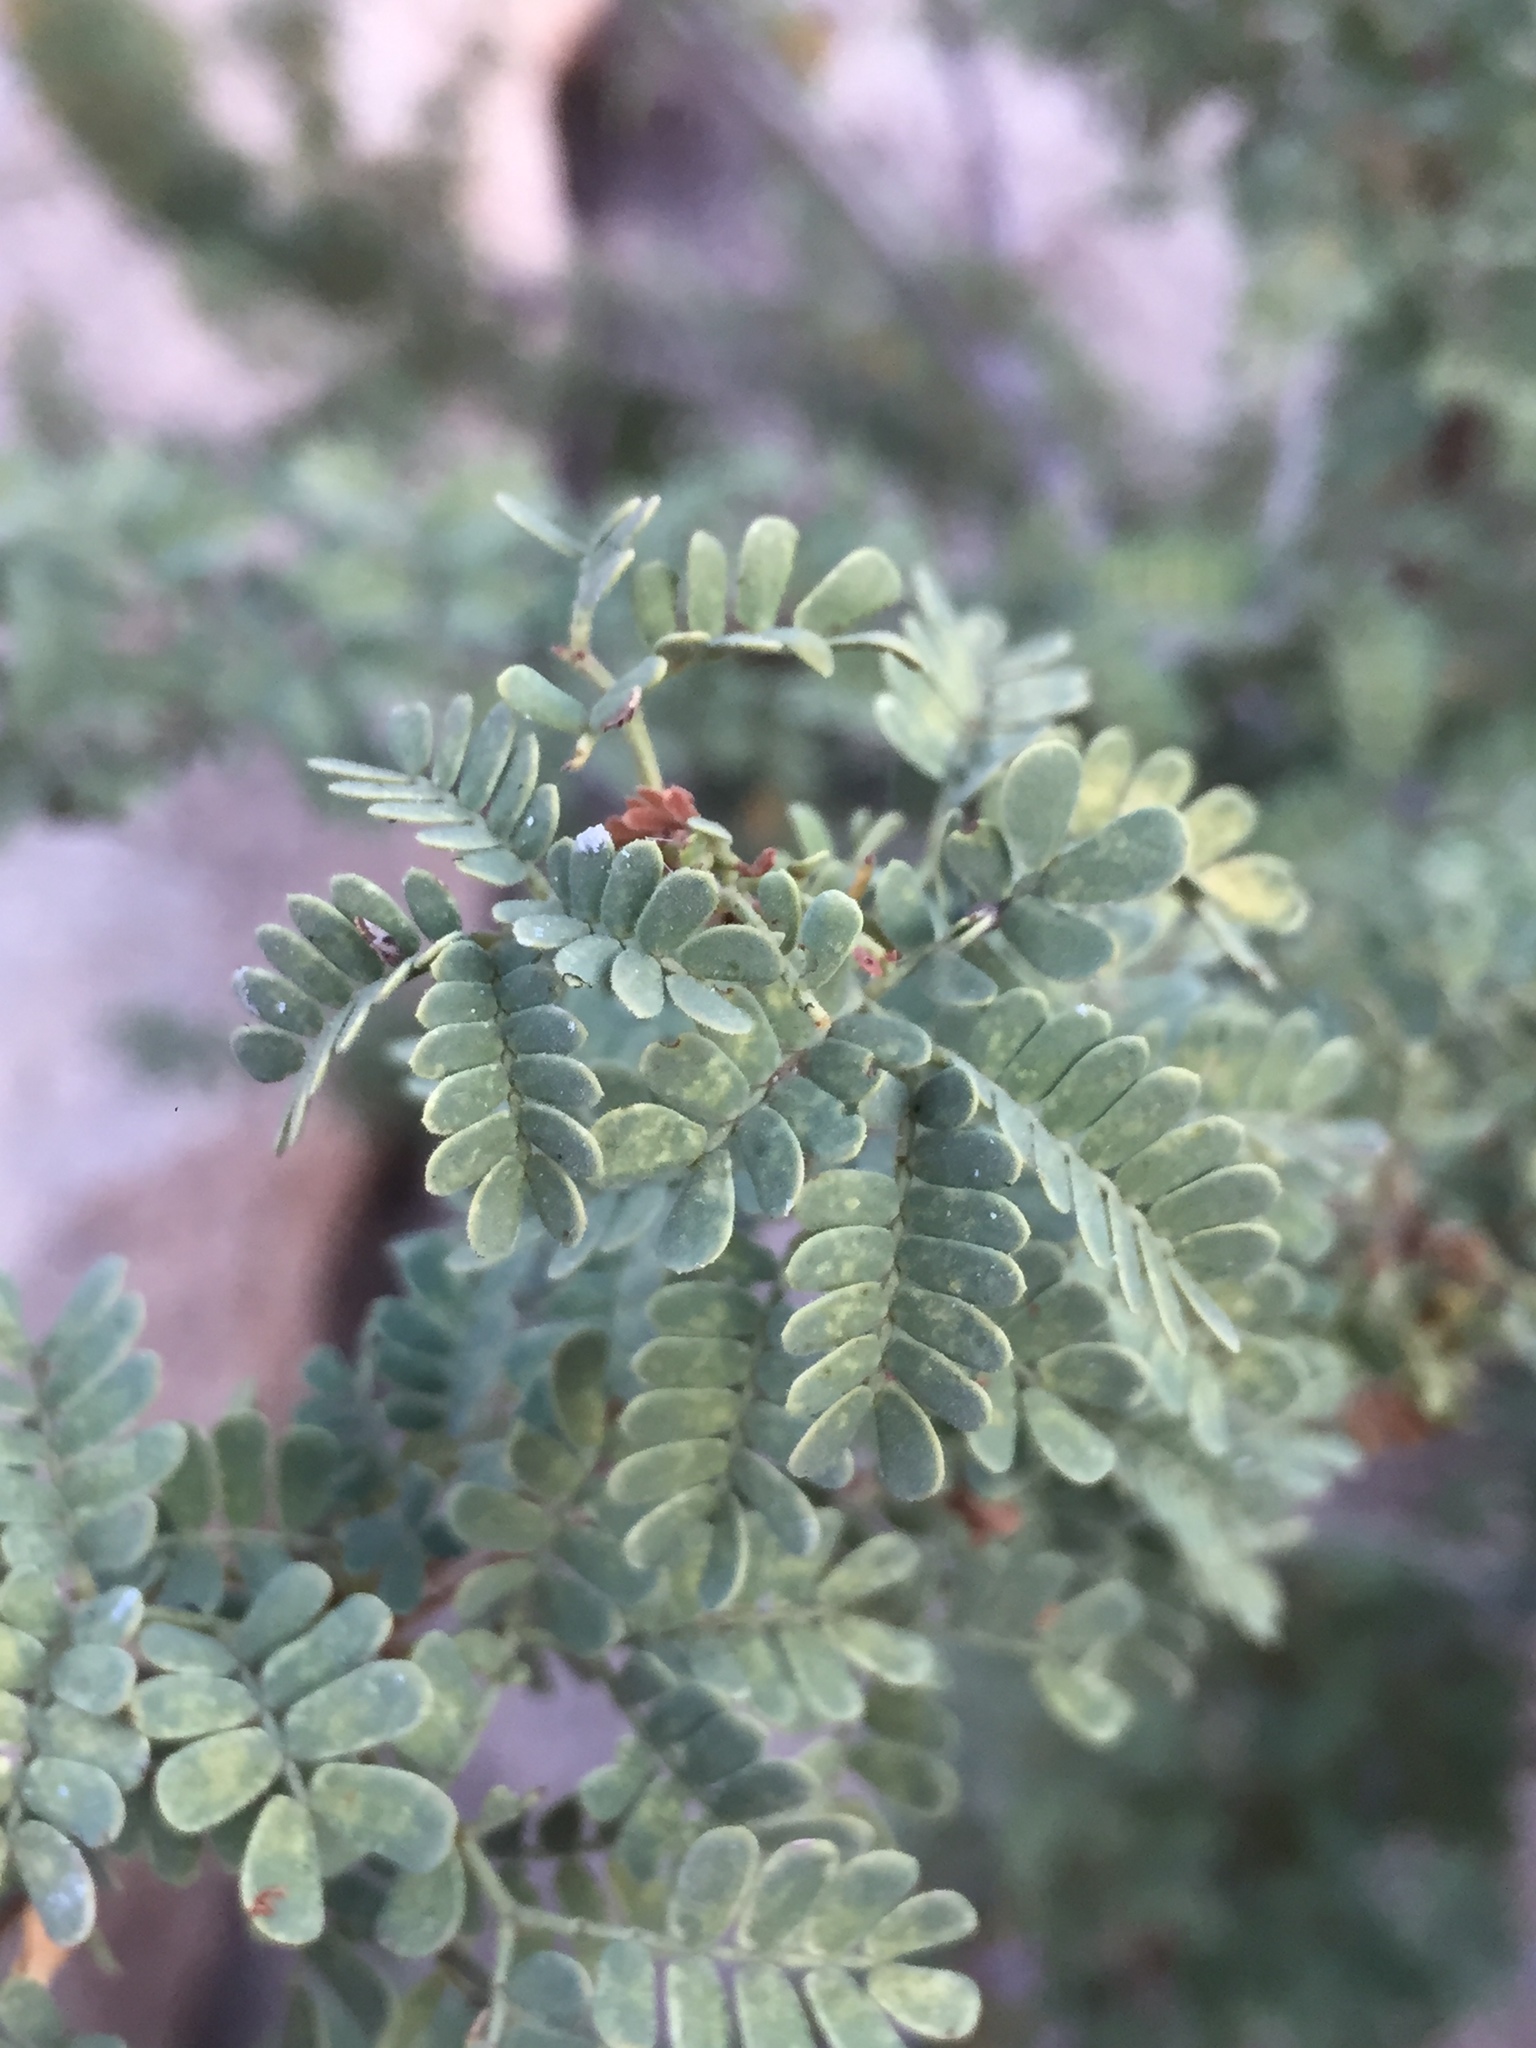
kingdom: Plantae
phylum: Tracheophyta
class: Magnoliopsida
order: Fabales
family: Fabaceae
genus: Senegalia
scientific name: Senegalia greggii
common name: Texas-mimosa
